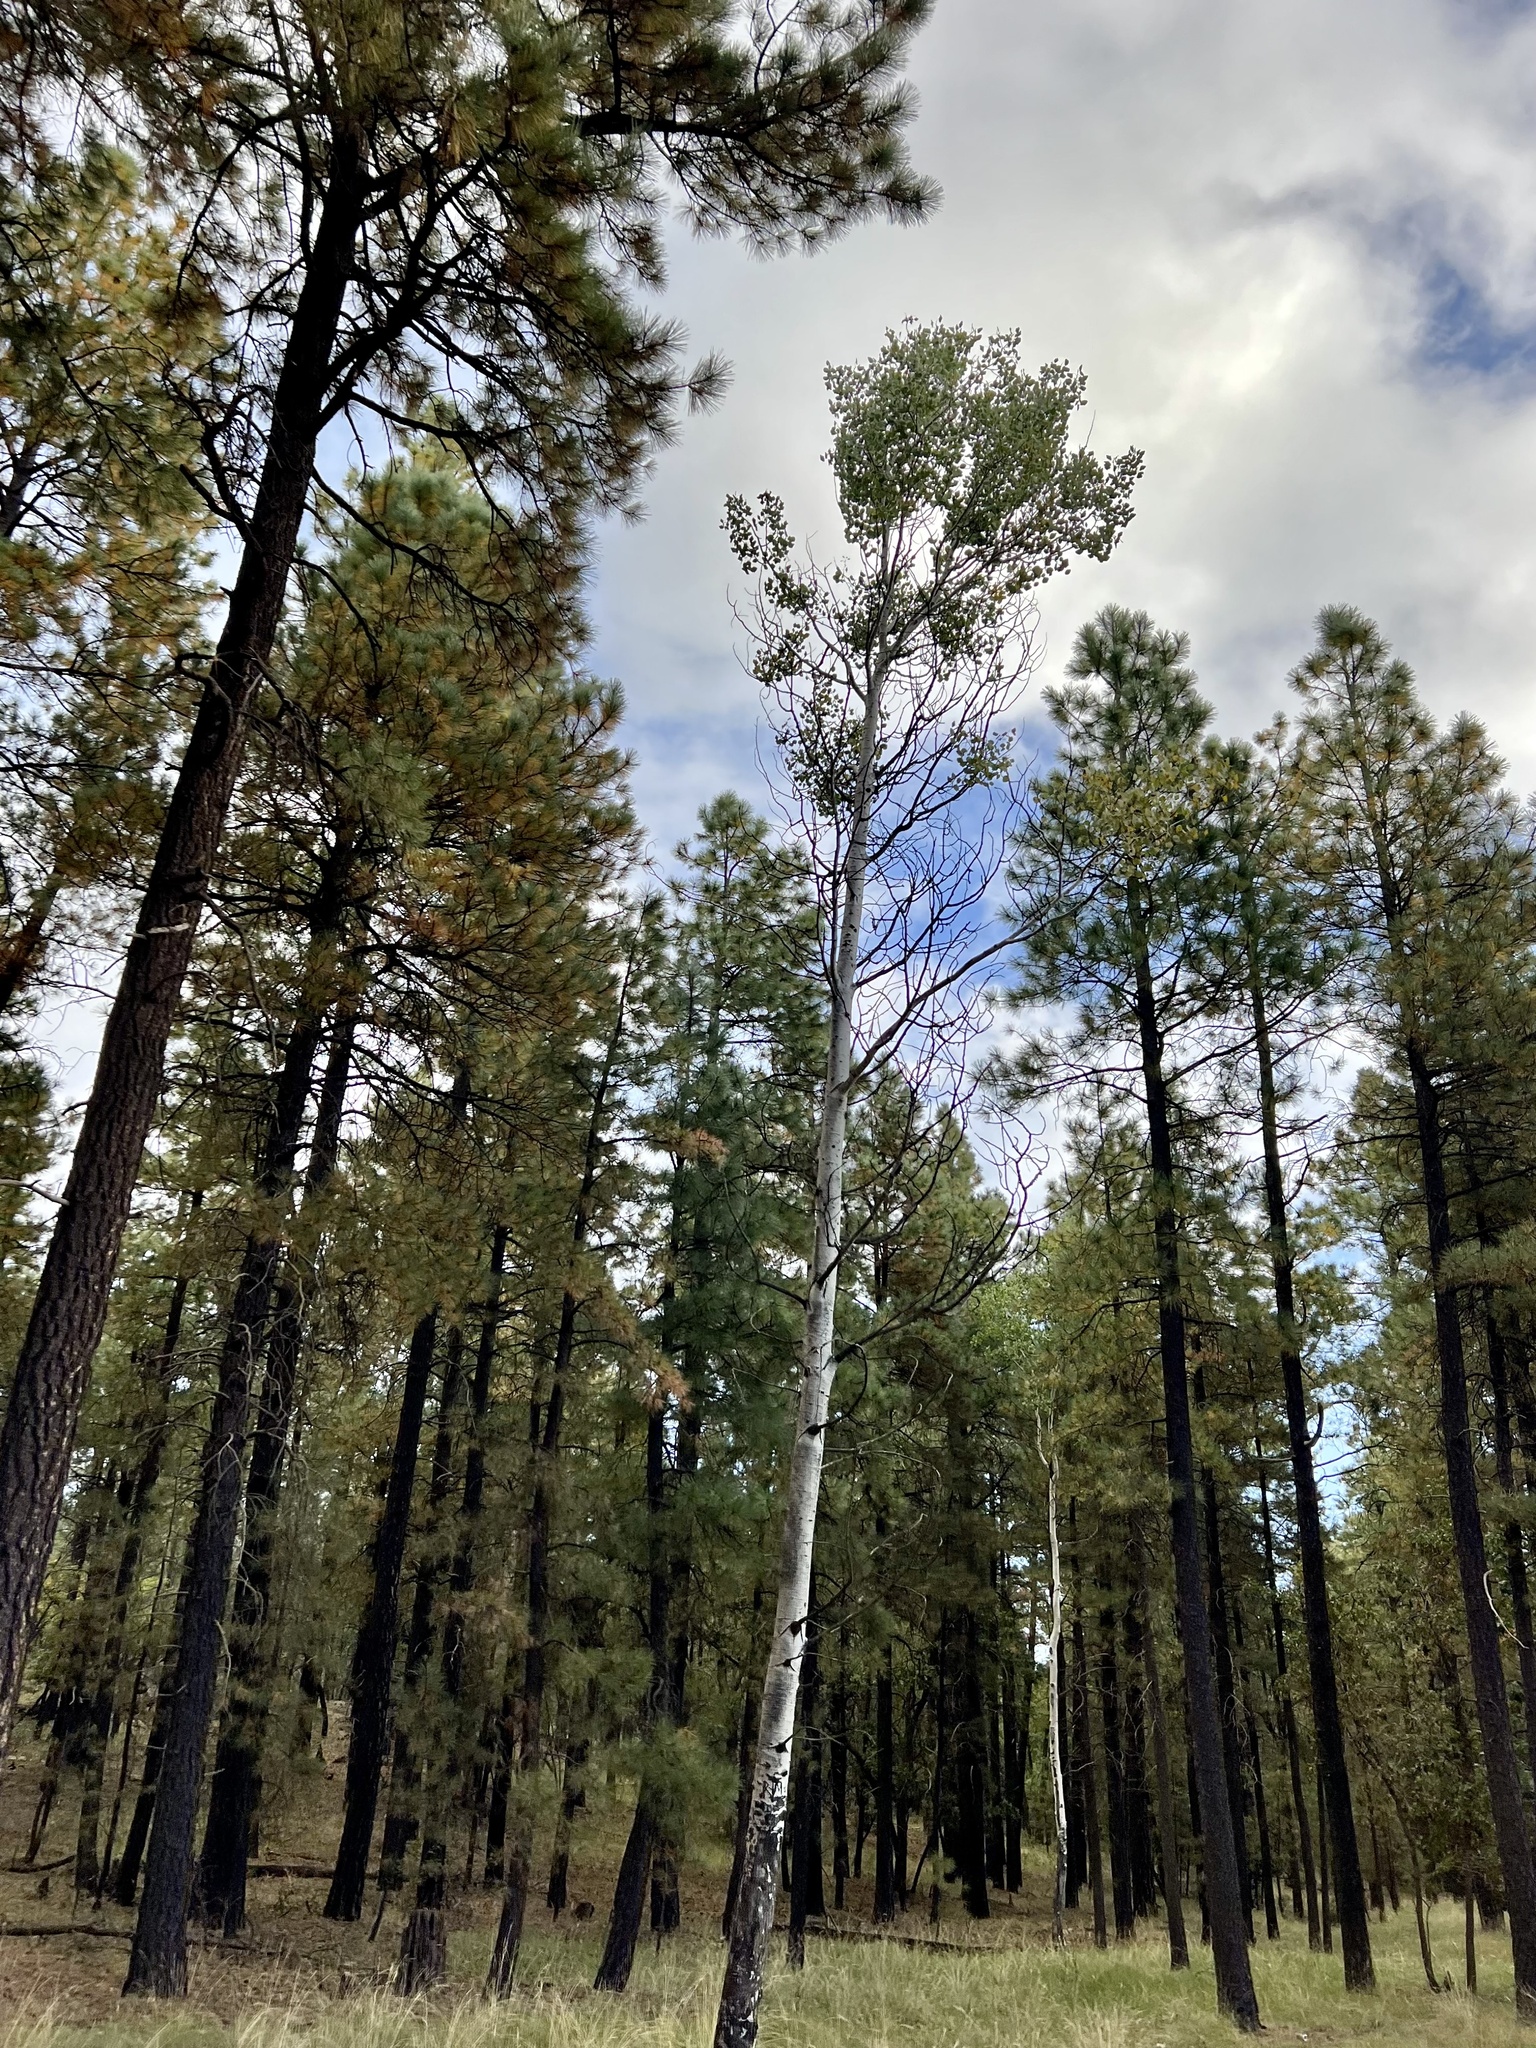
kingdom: Plantae
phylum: Tracheophyta
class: Magnoliopsida
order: Malpighiales
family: Salicaceae
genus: Populus
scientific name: Populus tremuloides
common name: Quaking aspen
